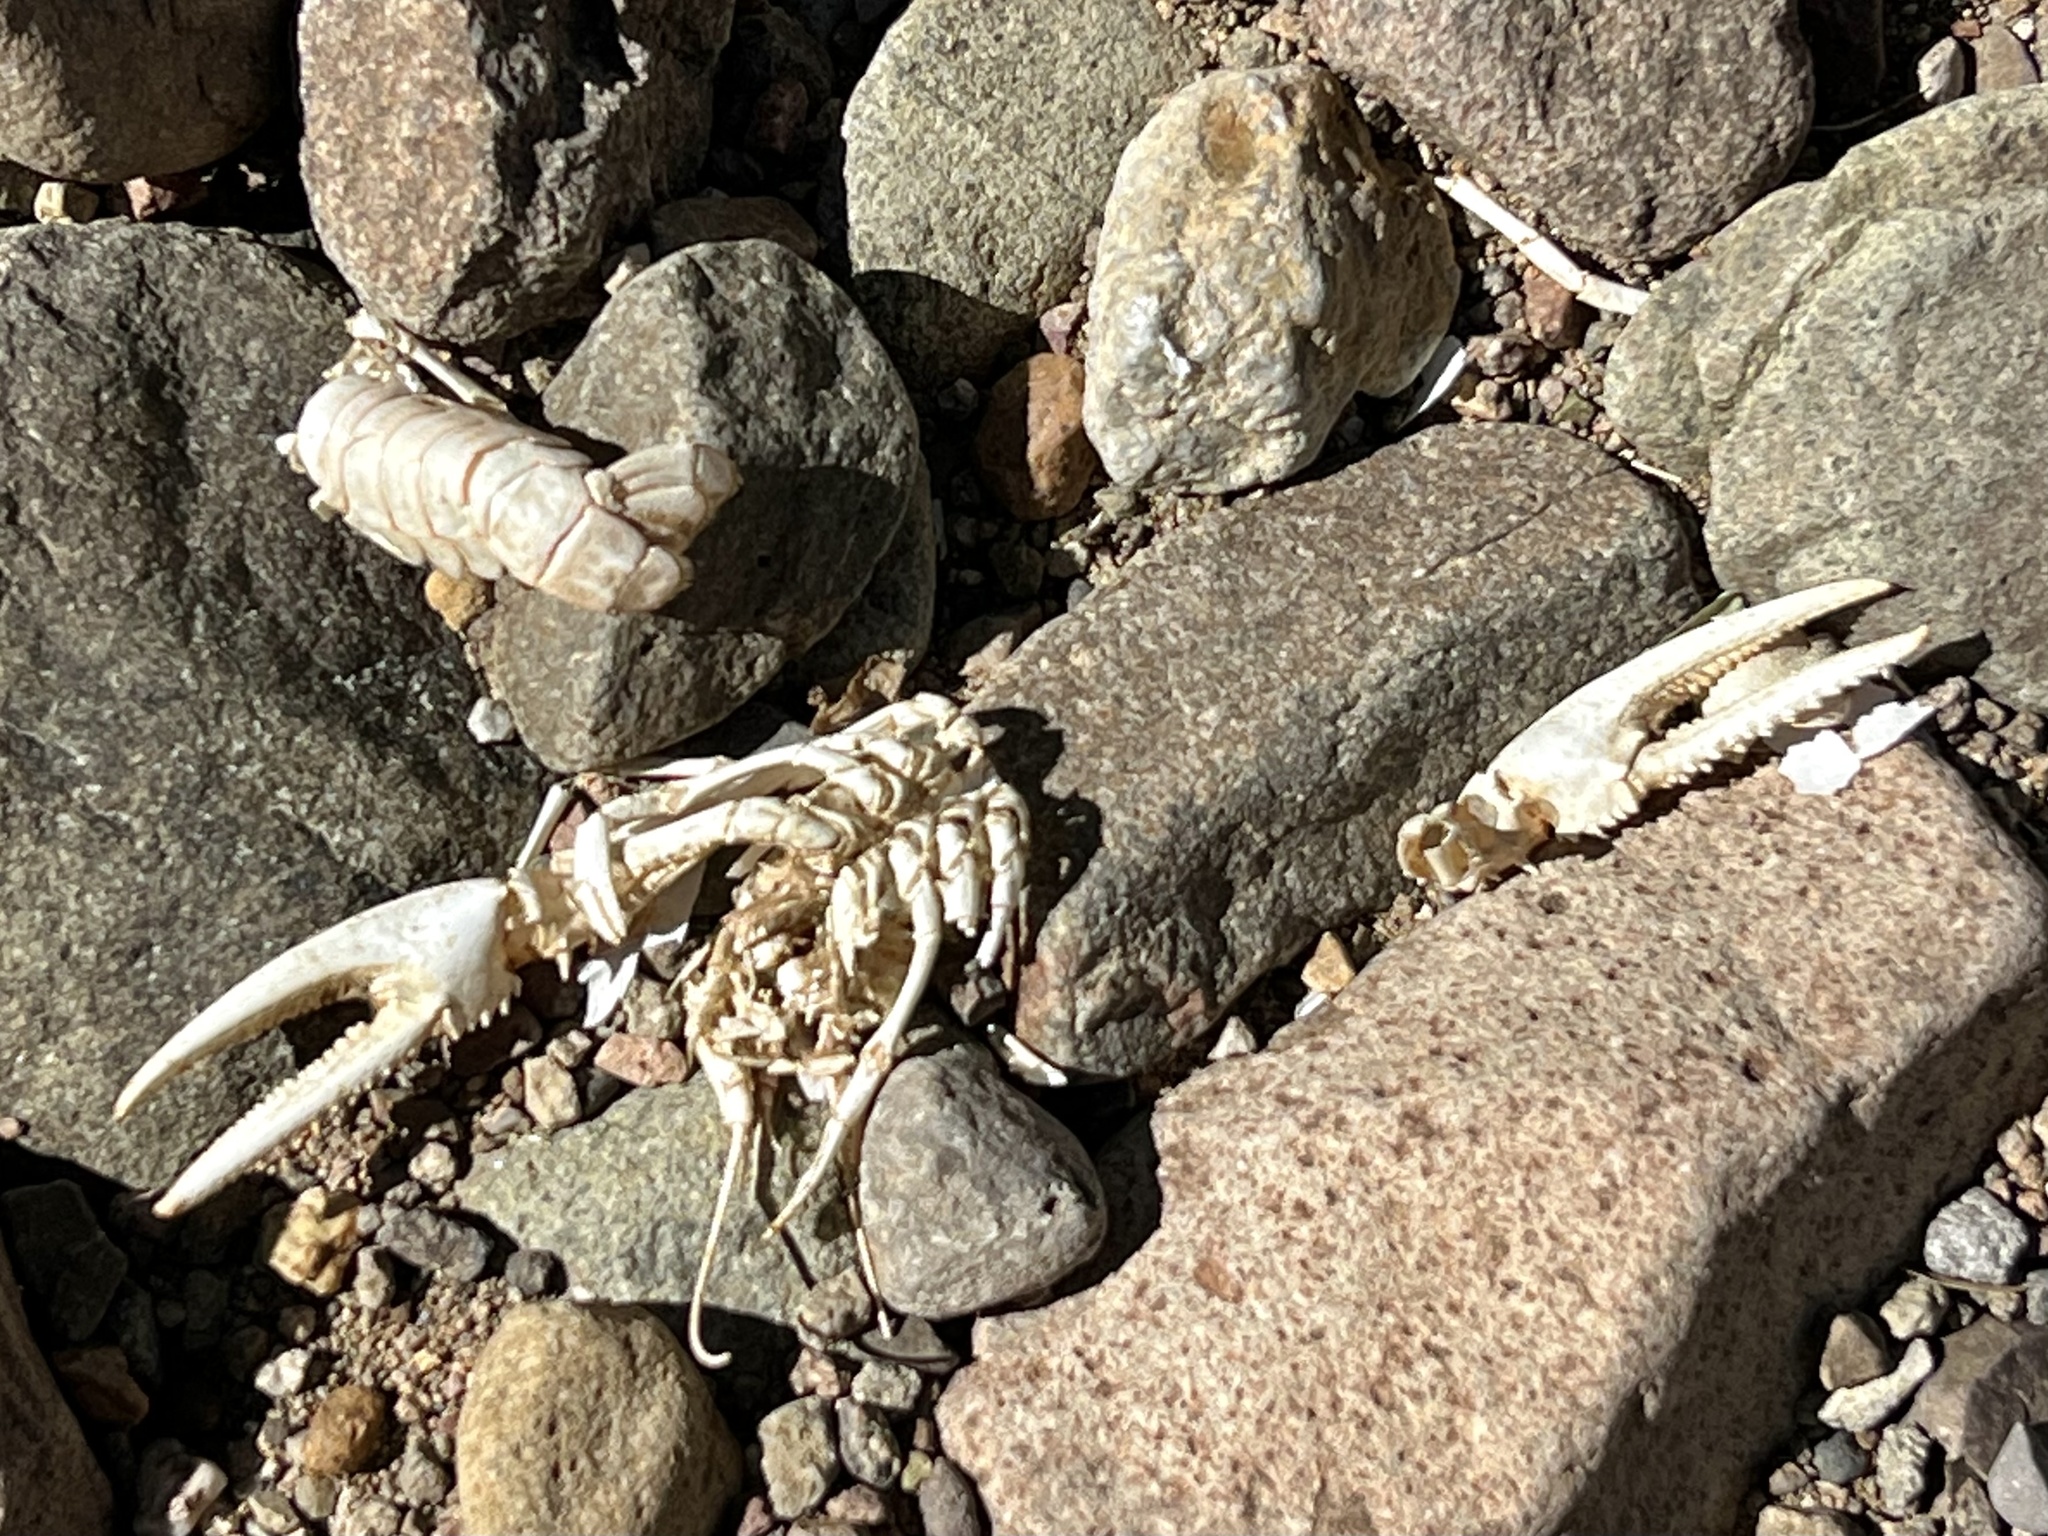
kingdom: Animalia
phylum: Arthropoda
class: Malacostraca
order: Decapoda
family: Cambaridae
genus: Faxonius
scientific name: Faxonius virilis
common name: Virile crayfish
